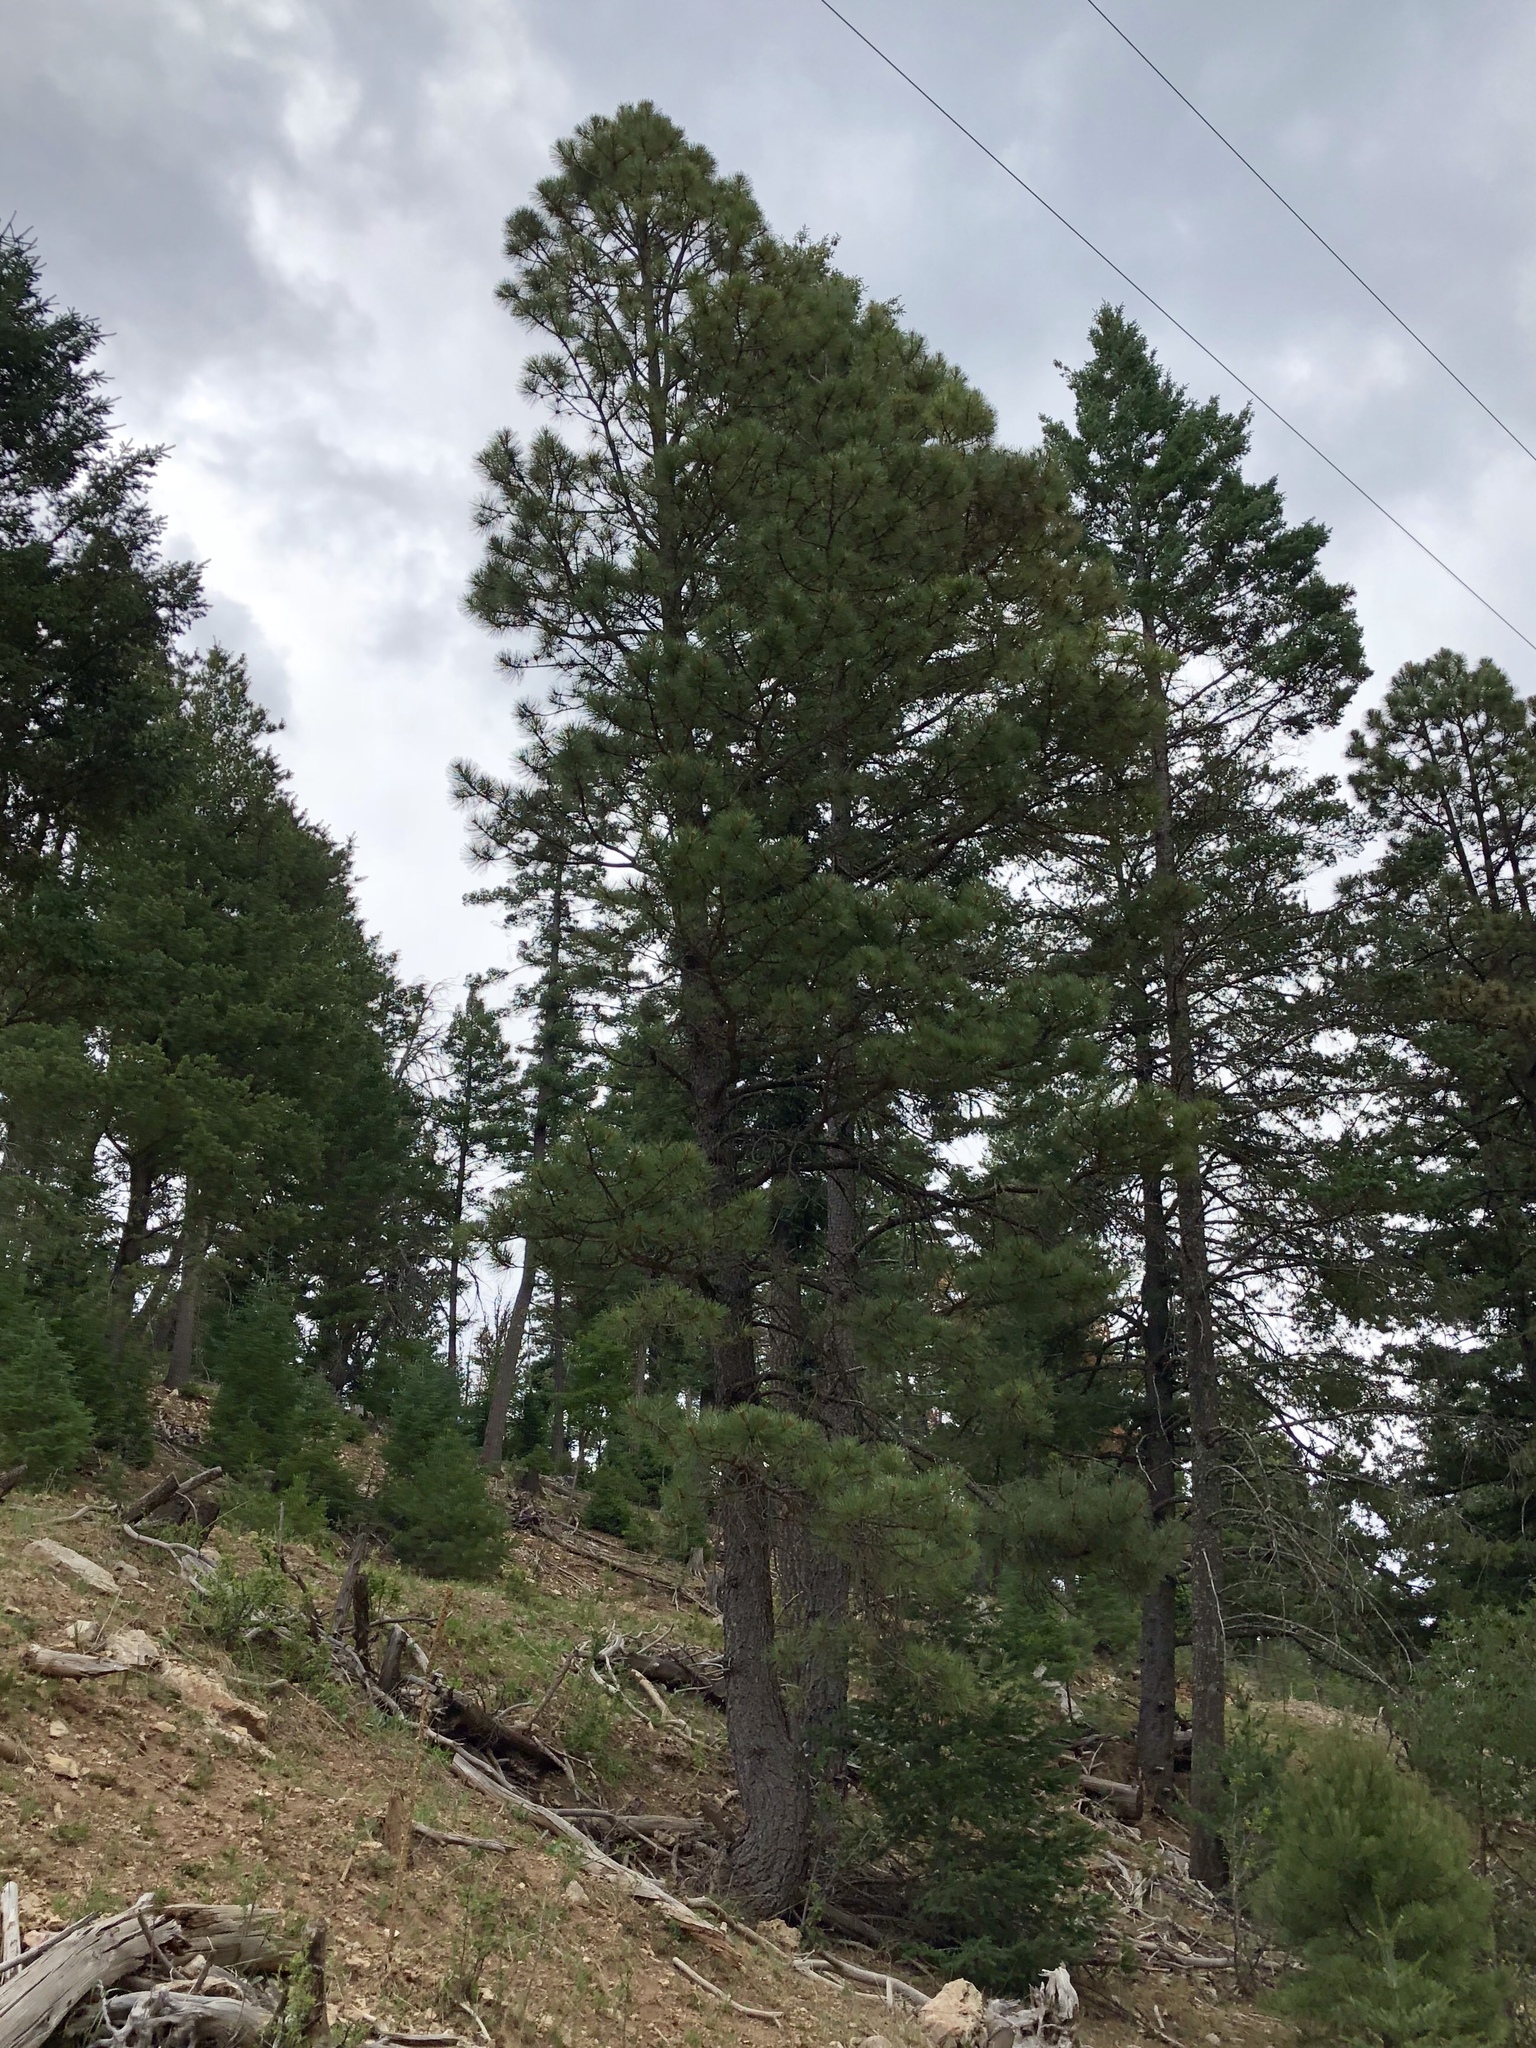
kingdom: Plantae
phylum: Tracheophyta
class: Pinopsida
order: Pinales
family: Pinaceae
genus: Pinus
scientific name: Pinus ponderosa
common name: Western yellow-pine
